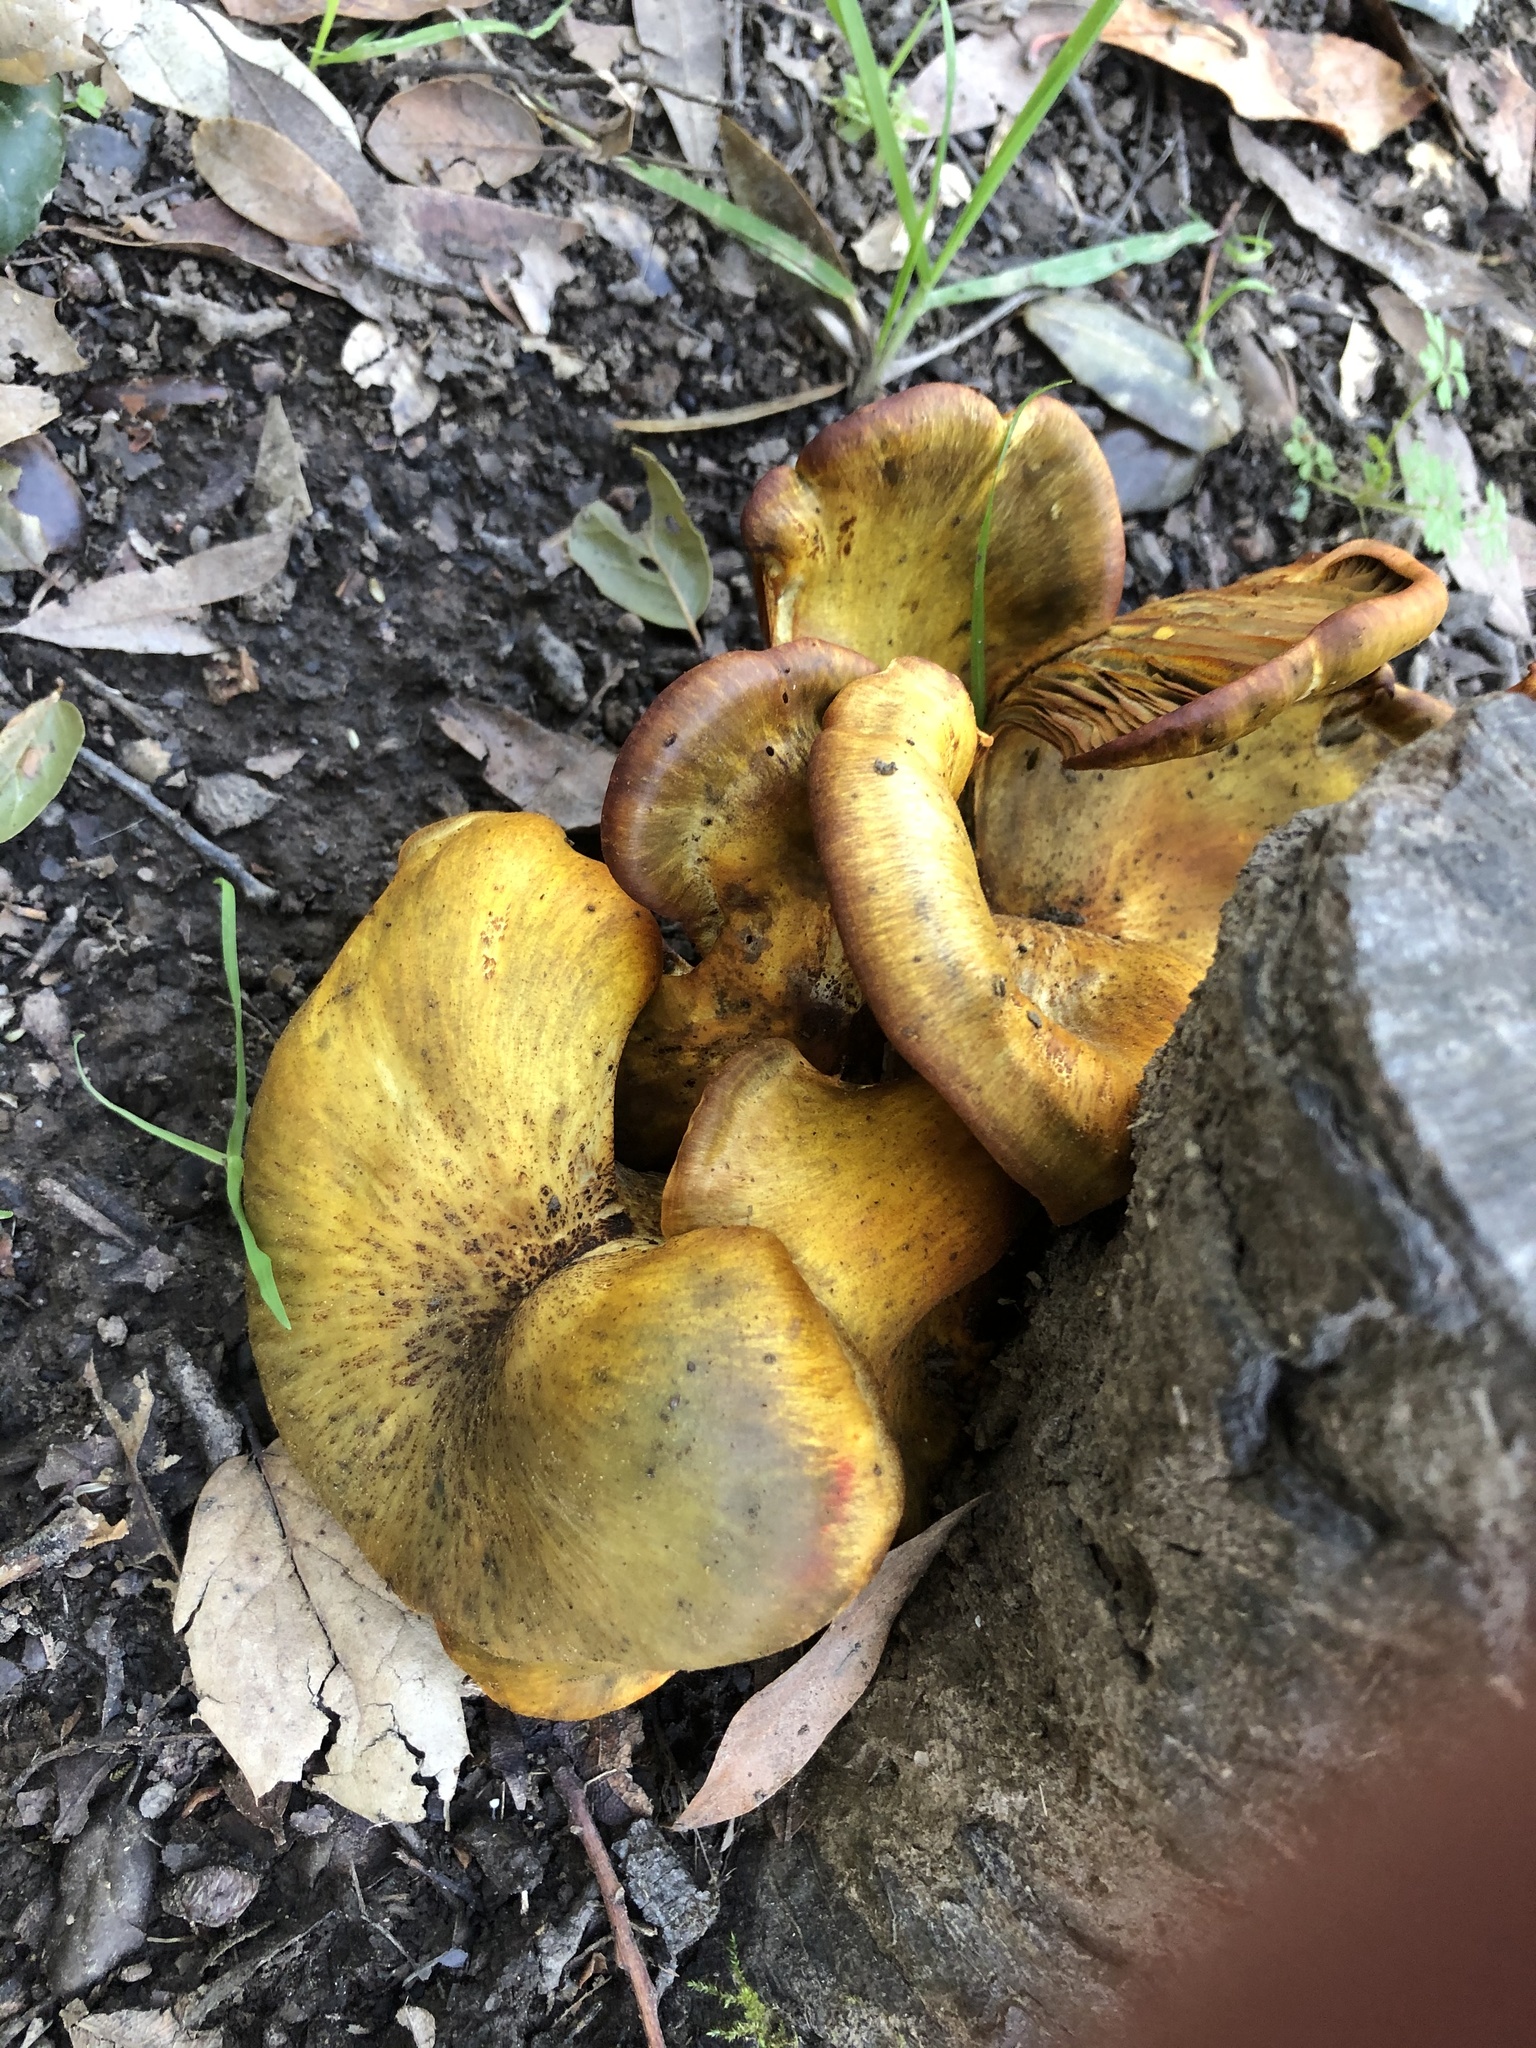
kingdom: Fungi
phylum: Basidiomycota
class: Agaricomycetes
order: Agaricales
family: Omphalotaceae
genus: Omphalotus
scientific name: Omphalotus olivascens
